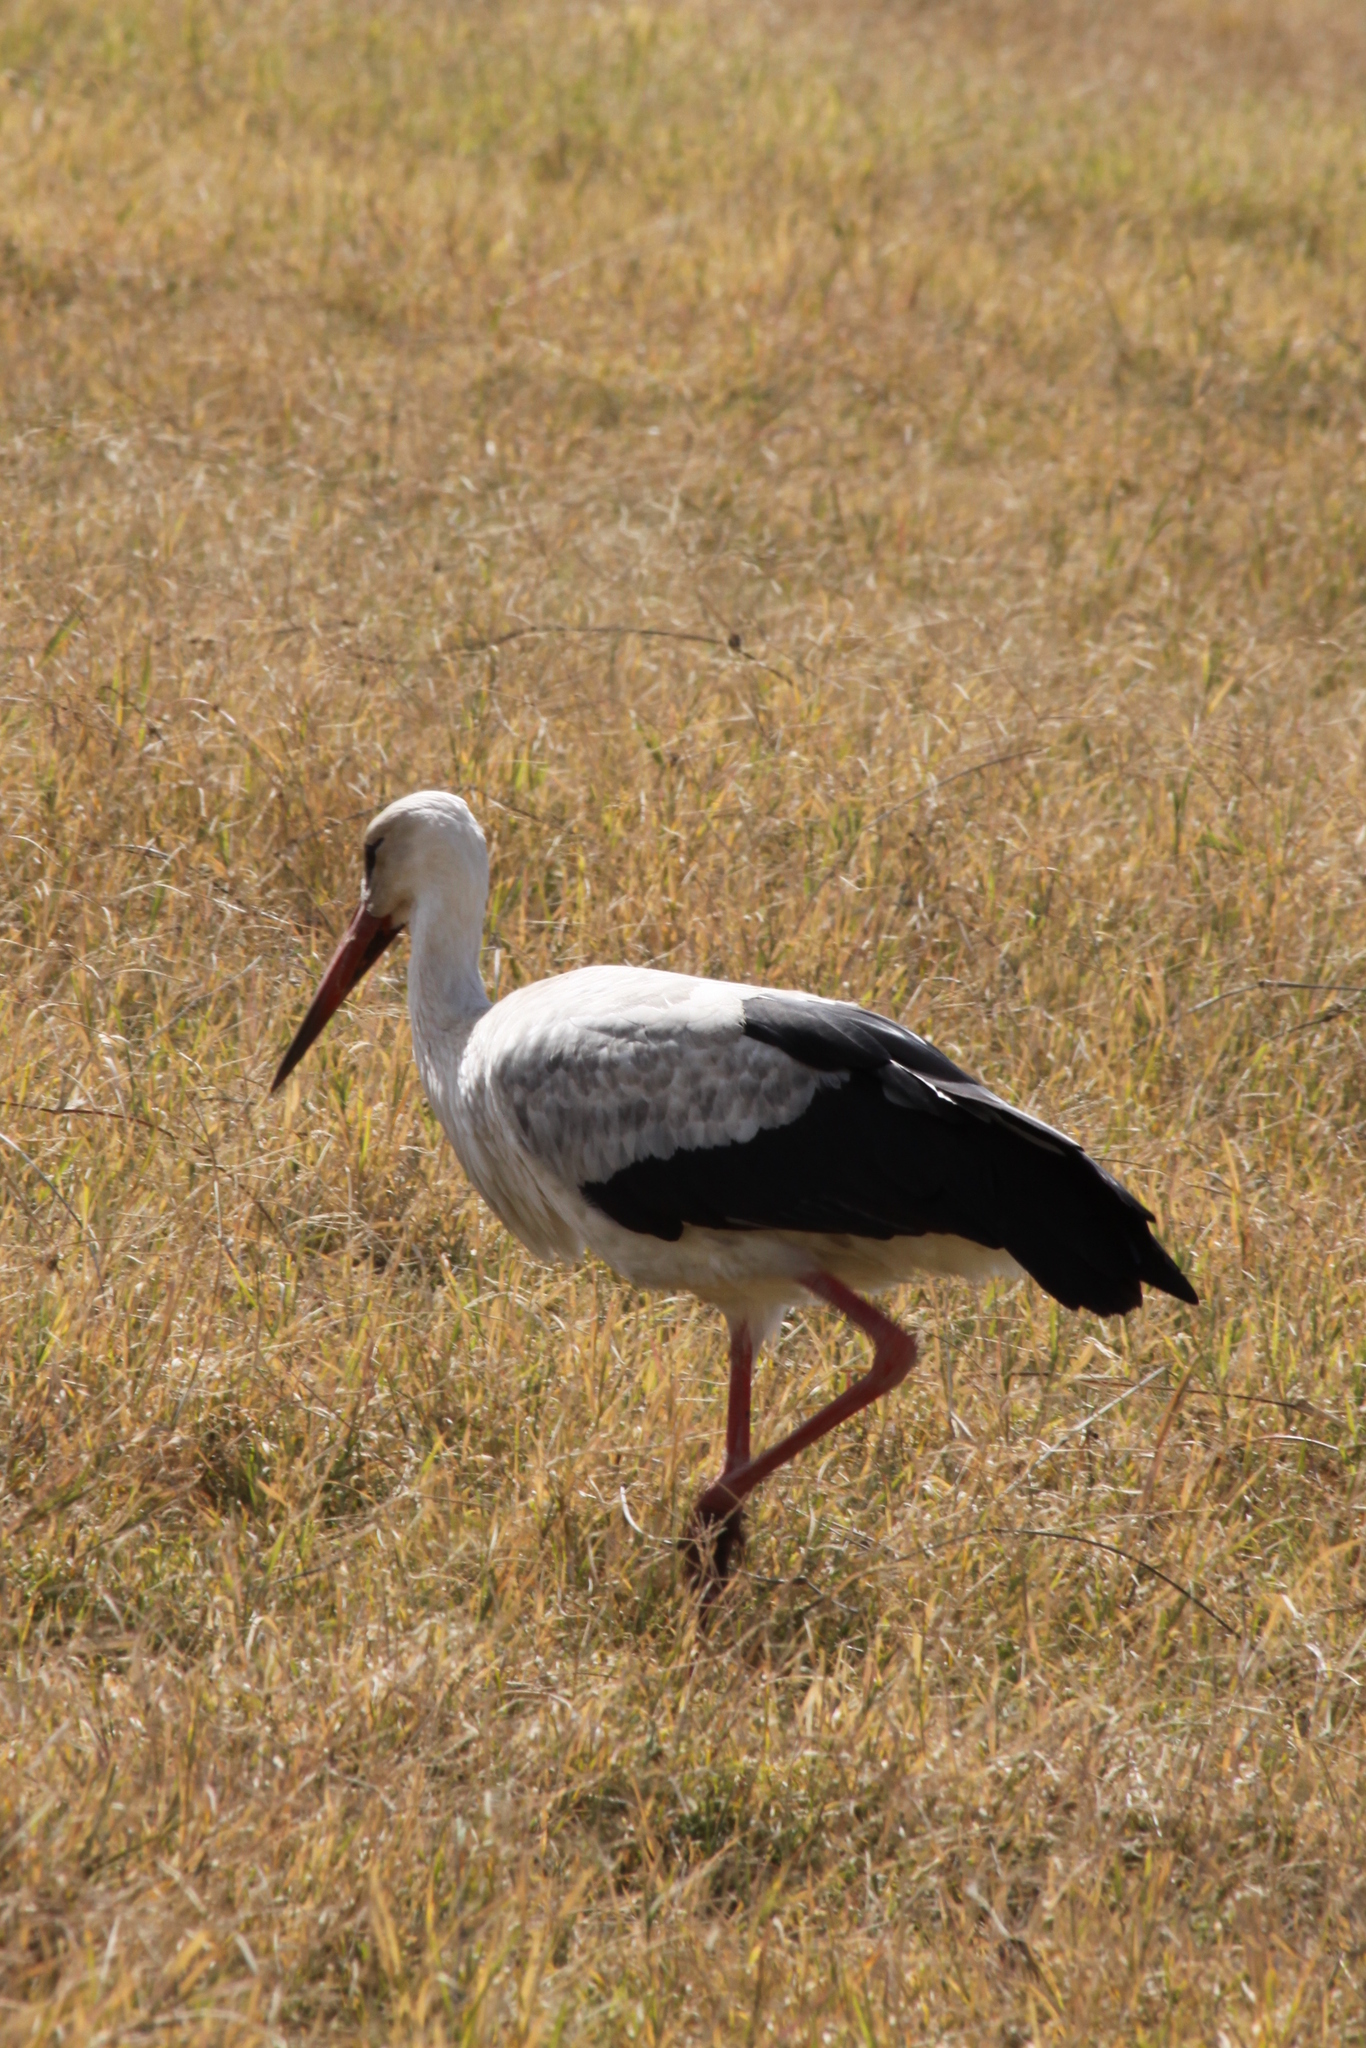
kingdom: Animalia
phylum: Chordata
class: Aves
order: Ciconiiformes
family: Ciconiidae
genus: Ciconia
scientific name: Ciconia ciconia
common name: White stork
